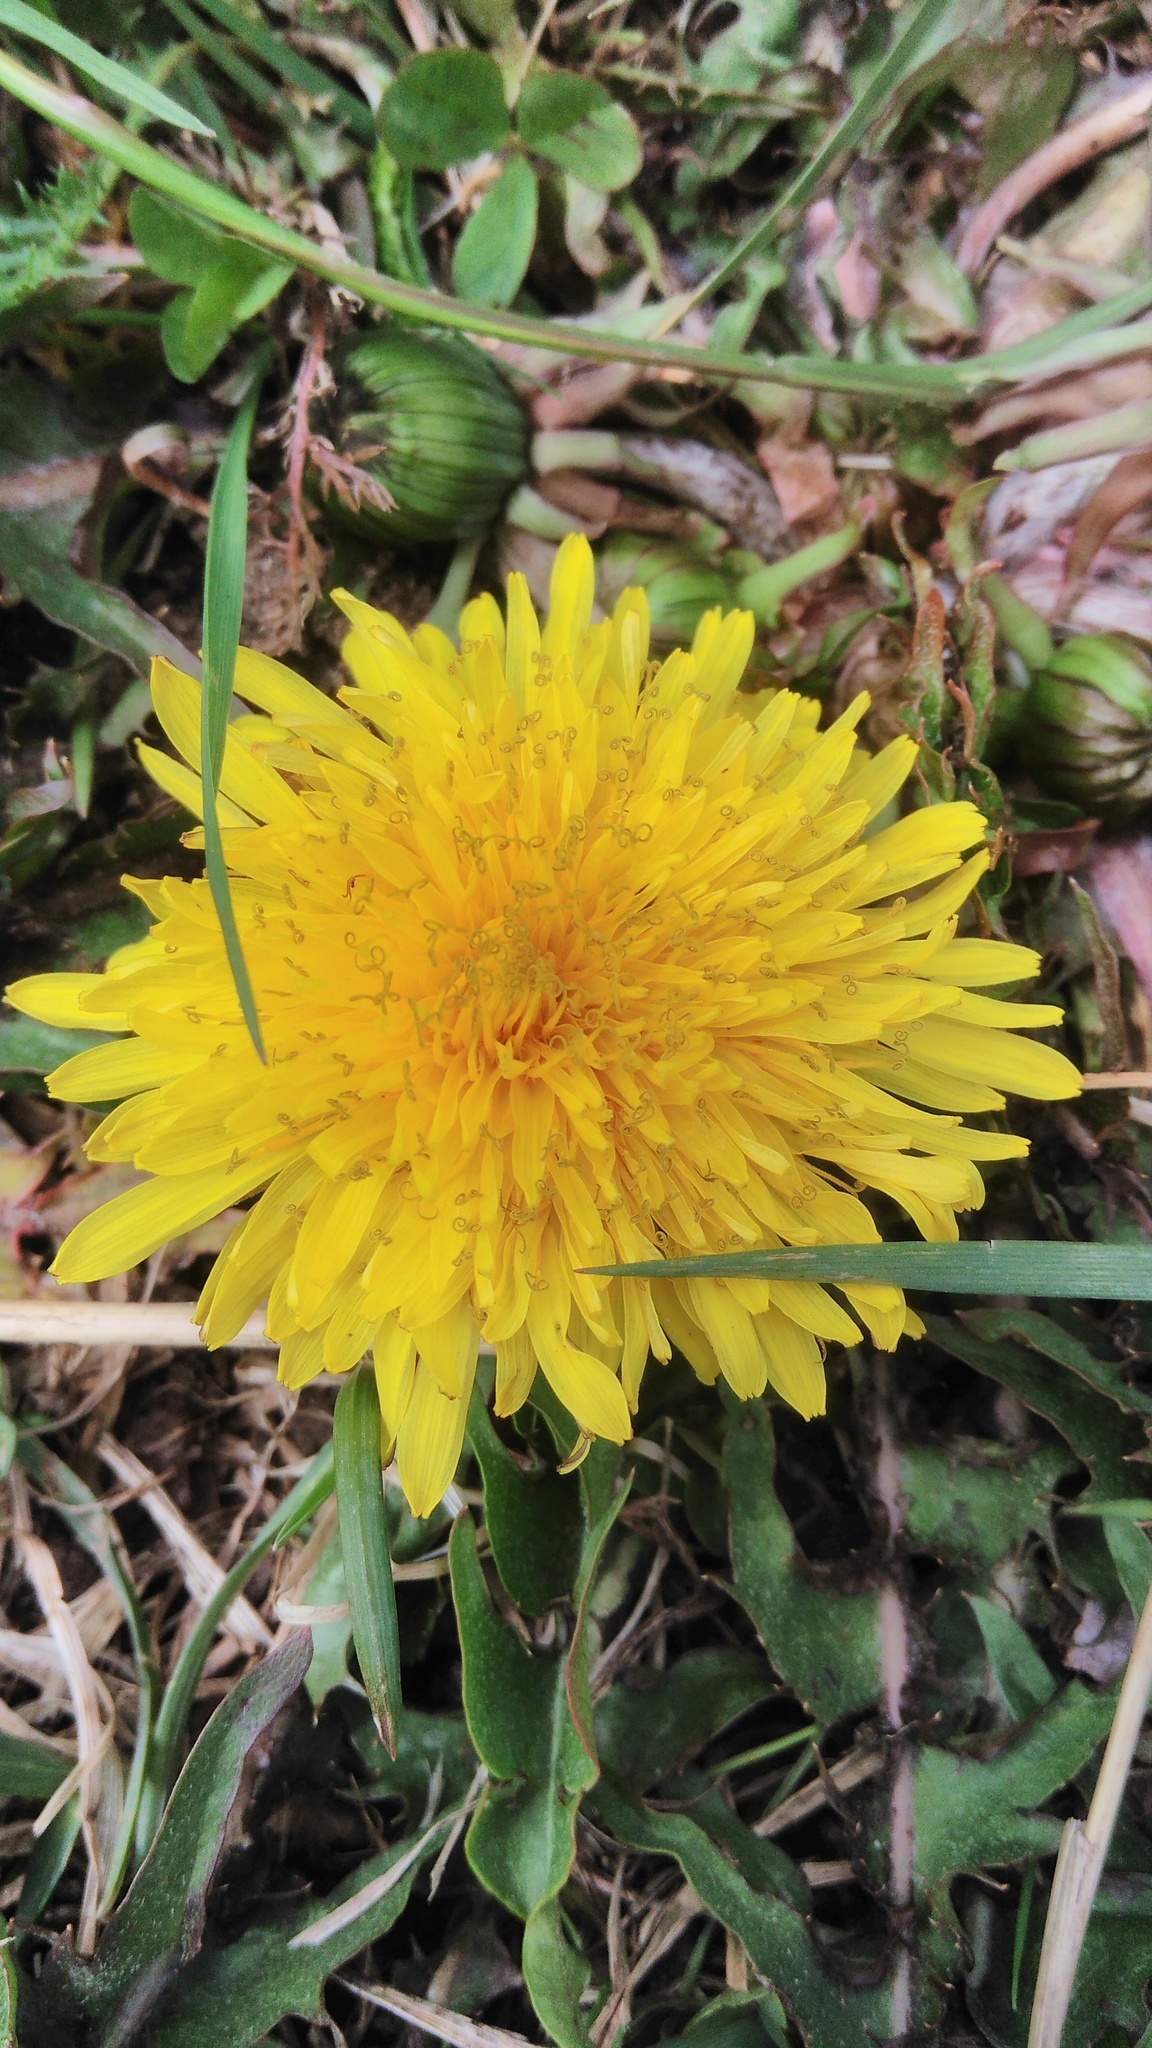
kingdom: Plantae
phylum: Tracheophyta
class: Magnoliopsida
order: Asterales
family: Asteraceae
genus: Taraxacum
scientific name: Taraxacum officinale
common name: Common dandelion
